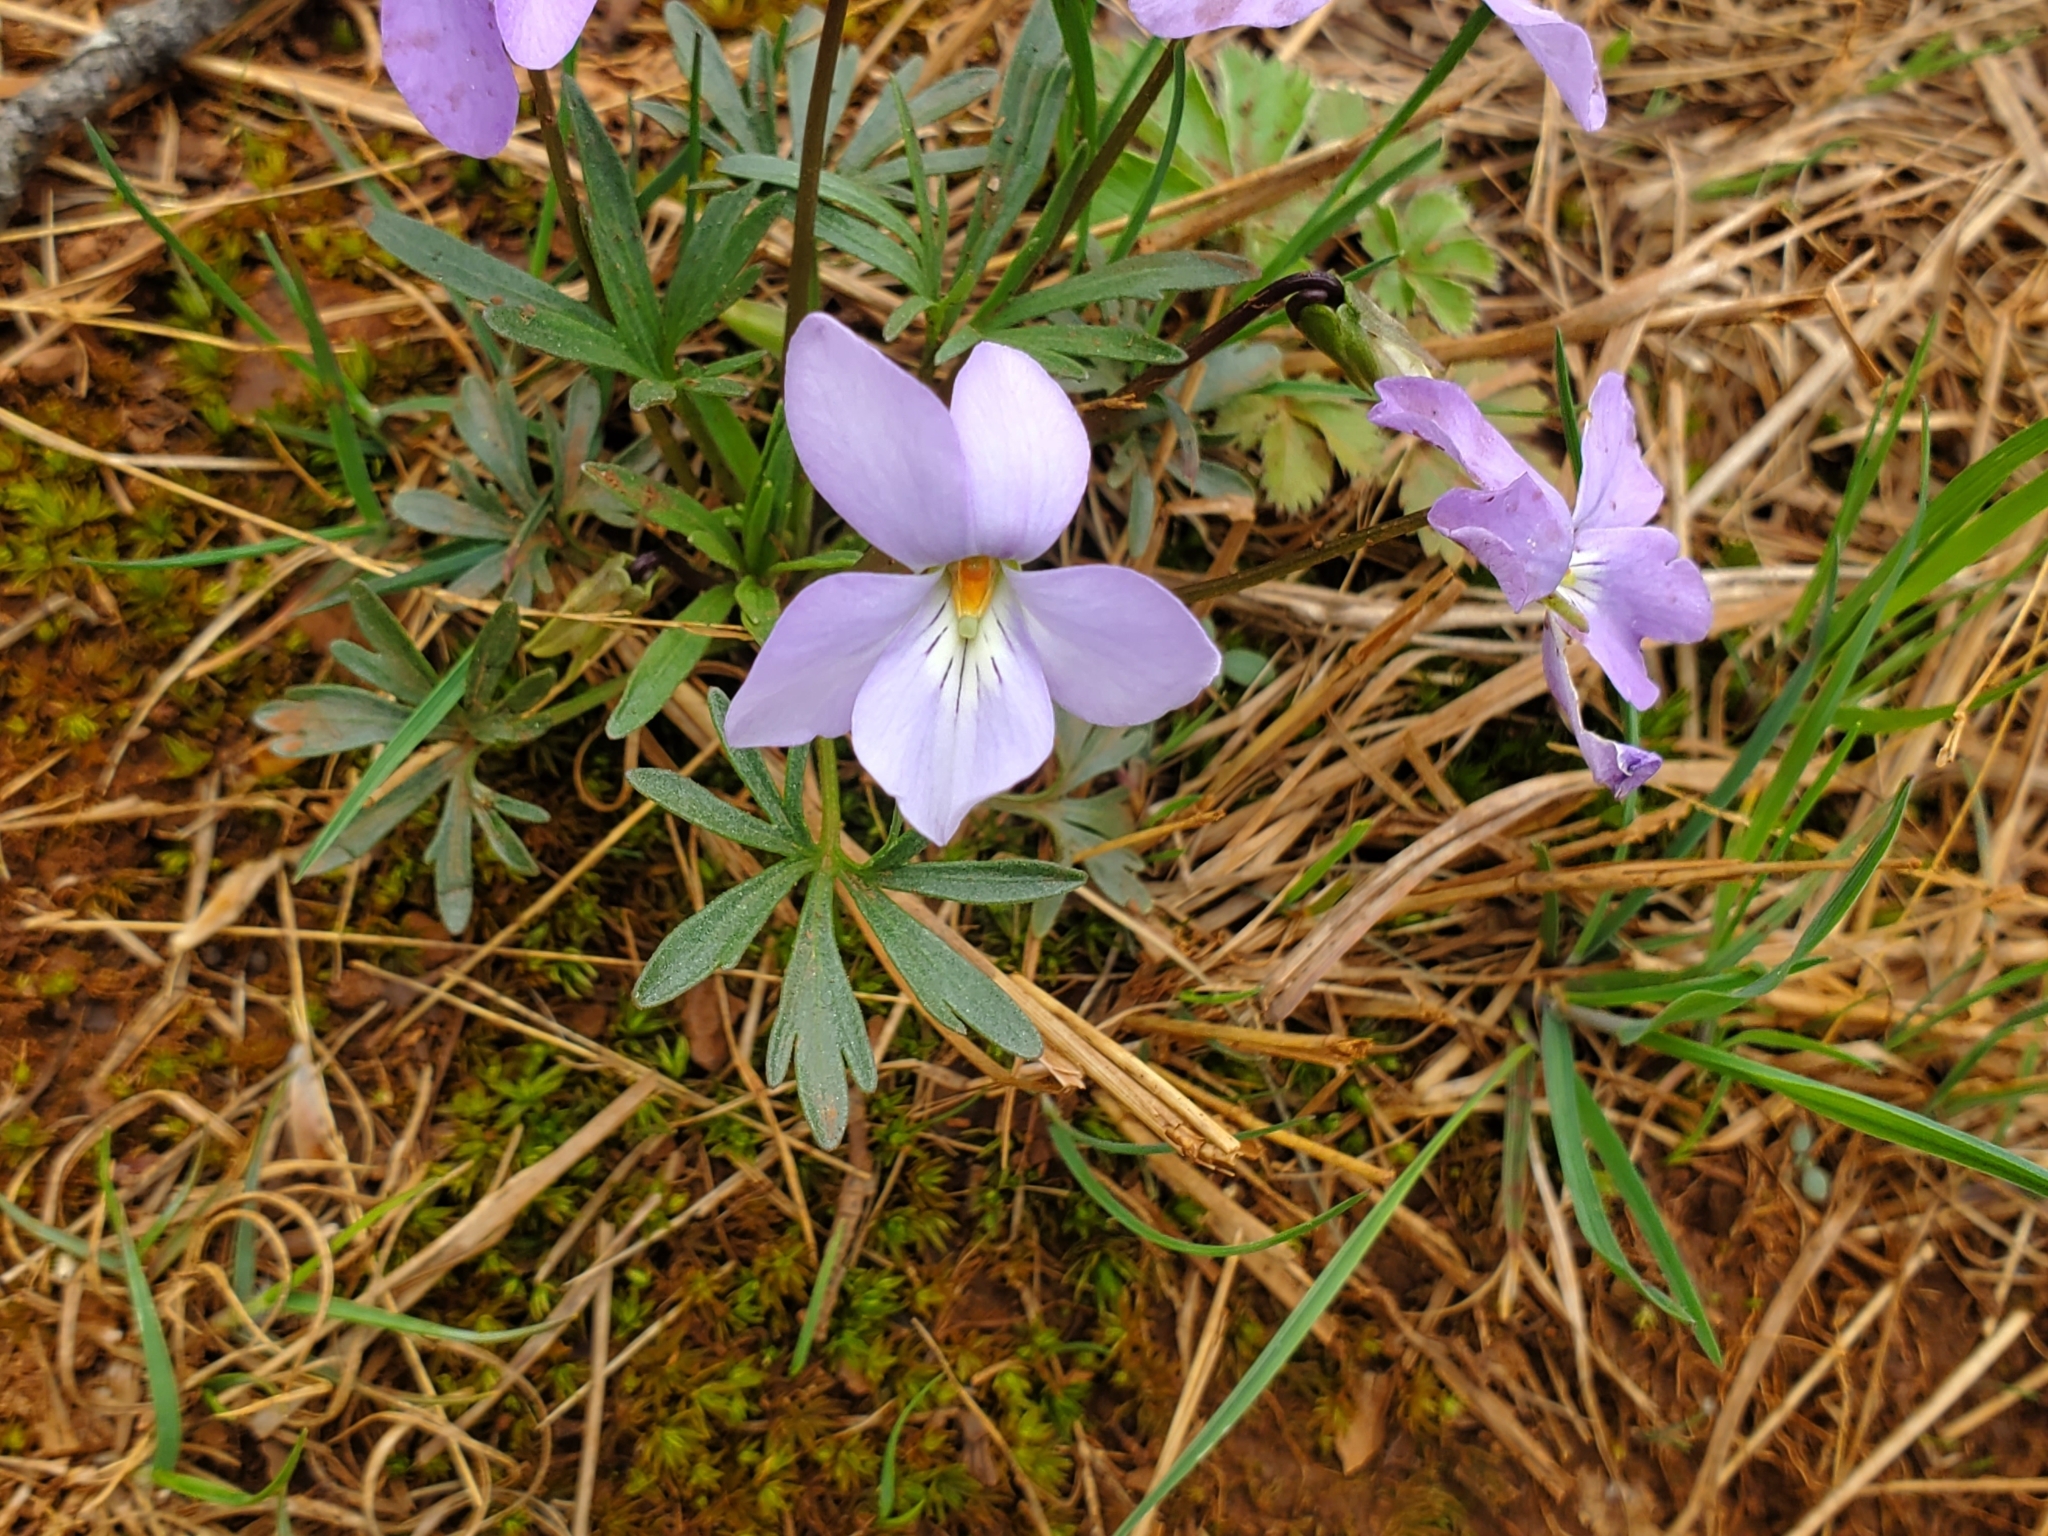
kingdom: Plantae
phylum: Tracheophyta
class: Magnoliopsida
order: Malpighiales
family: Violaceae
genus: Viola
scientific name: Viola pedata
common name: Pansy violet
